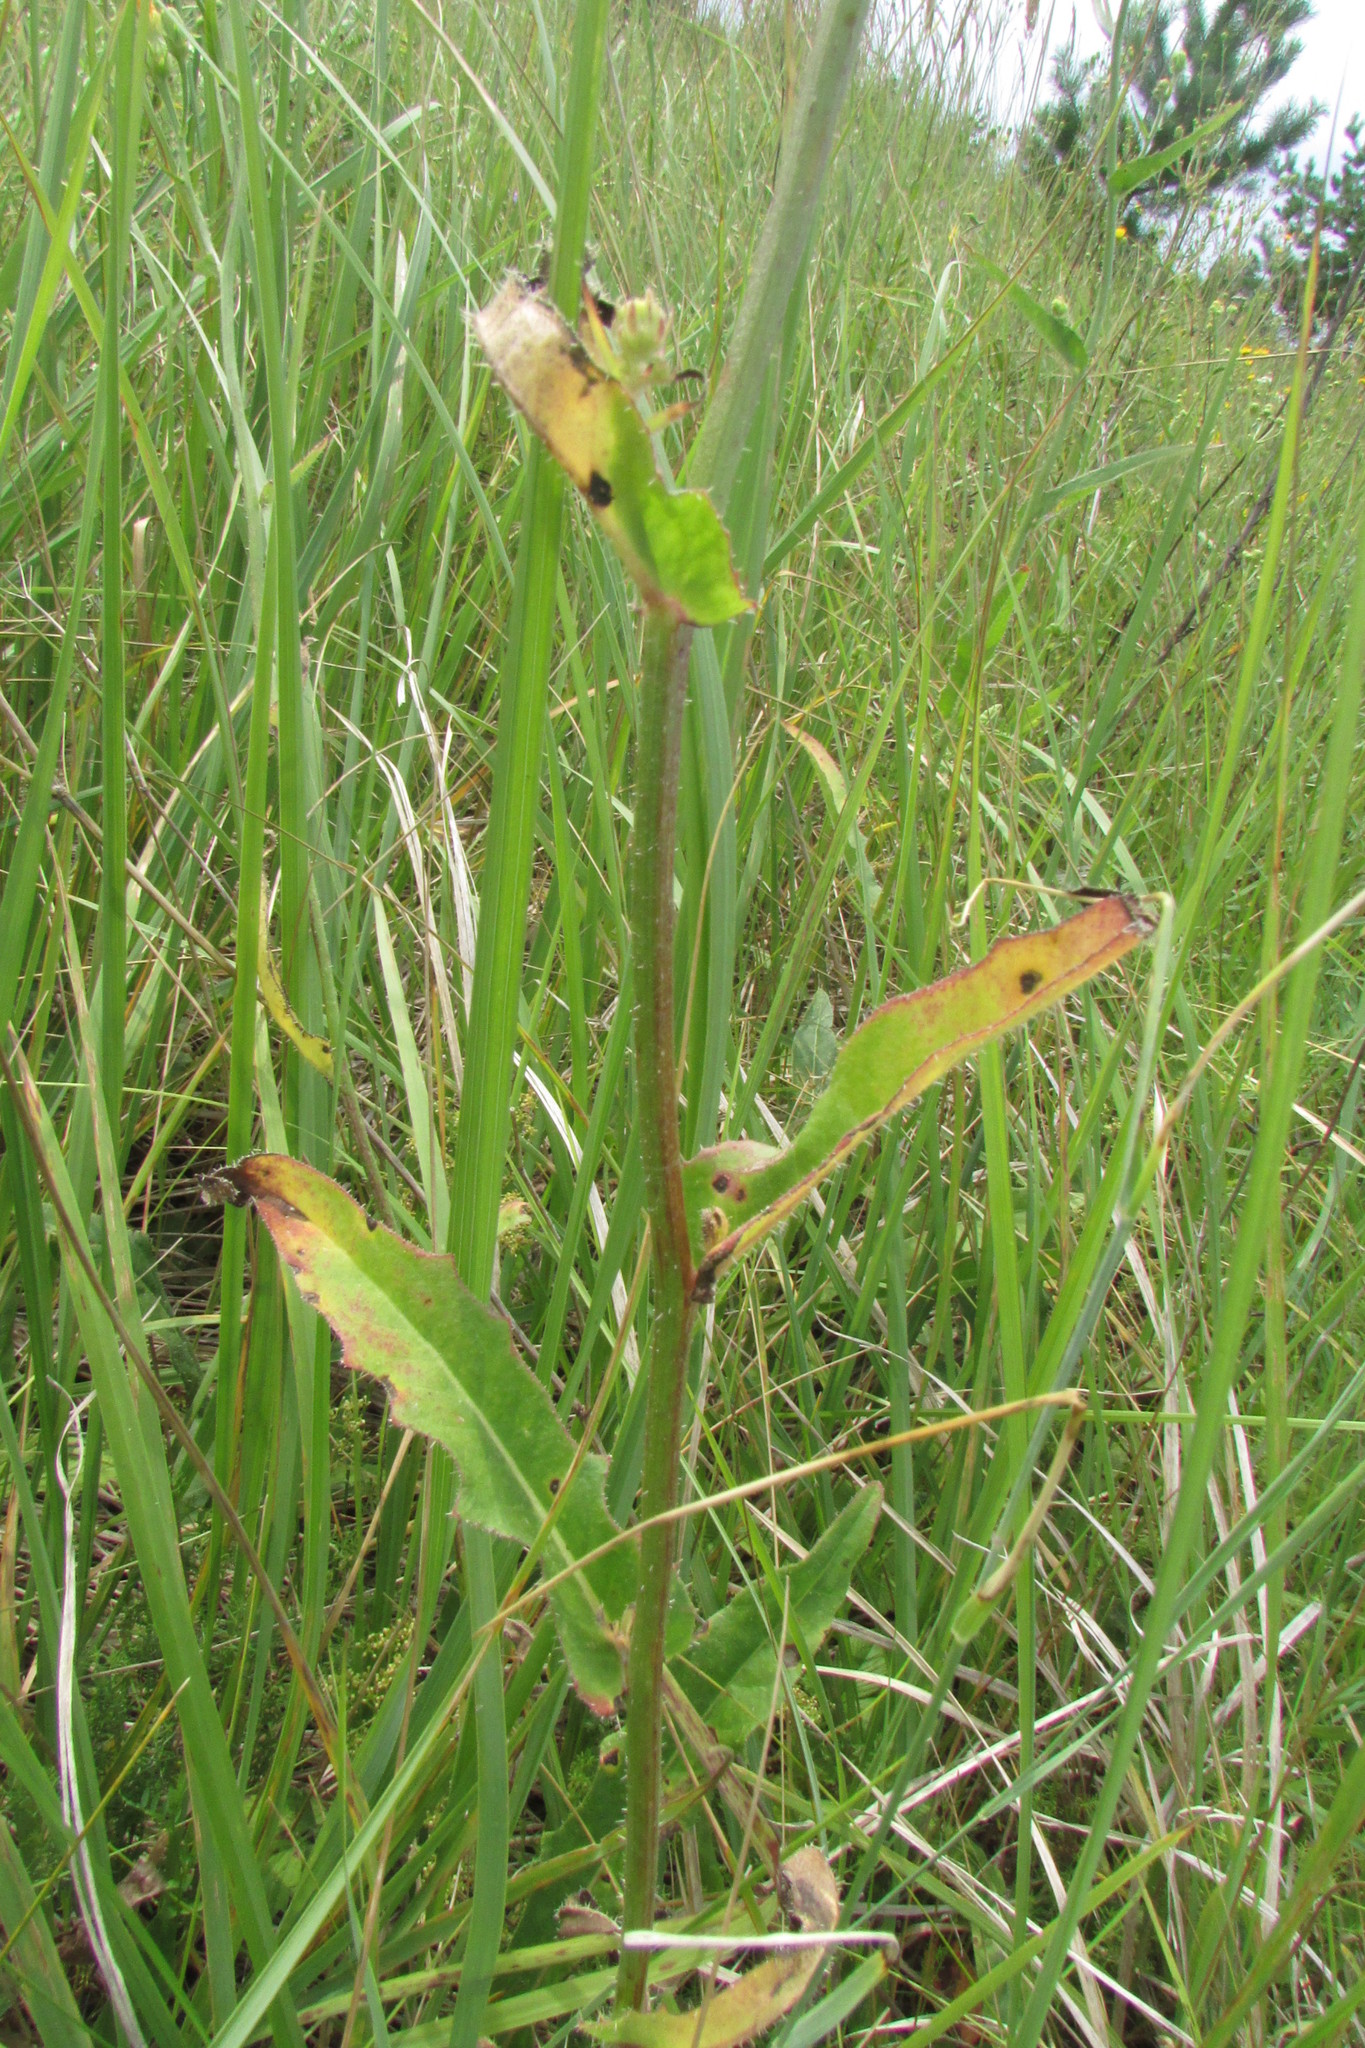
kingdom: Plantae
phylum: Tracheophyta
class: Magnoliopsida
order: Asterales
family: Asteraceae
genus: Picris
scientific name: Picris hieracioides
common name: Hawkweed oxtongue
